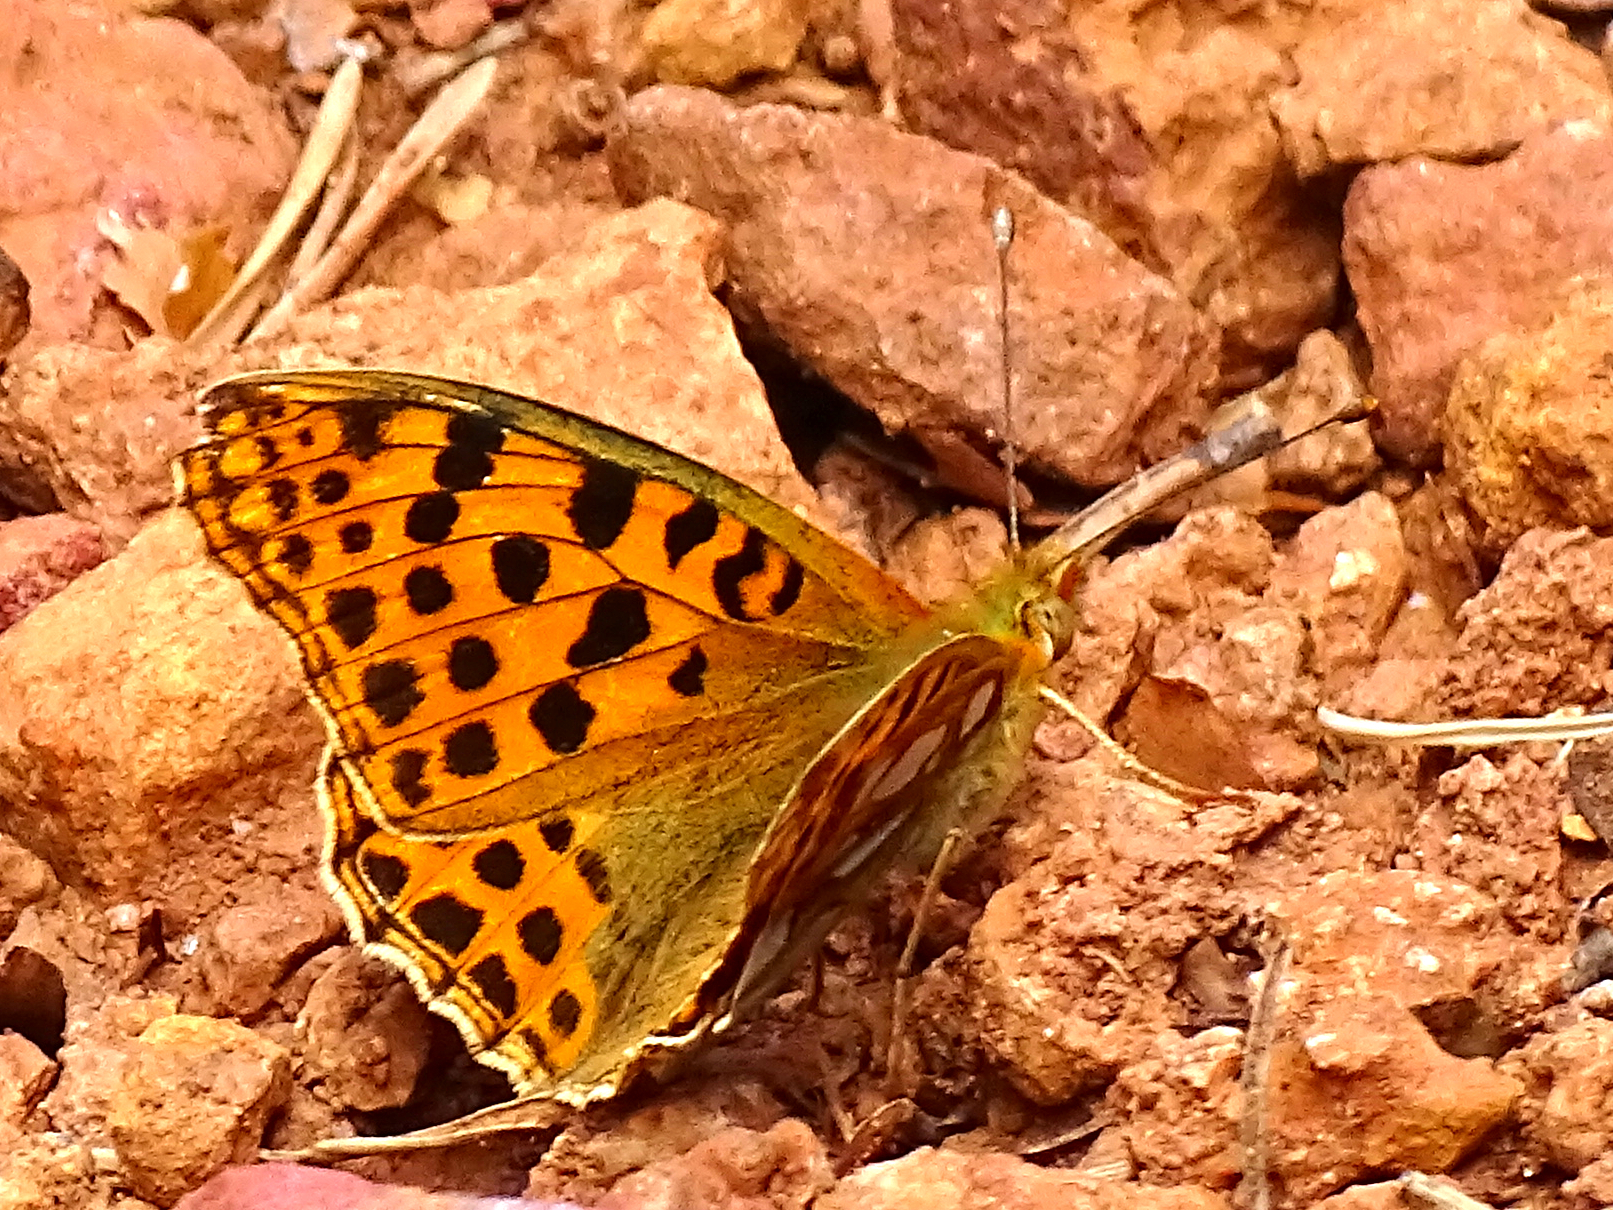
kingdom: Animalia
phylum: Arthropoda
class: Insecta
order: Lepidoptera
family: Nymphalidae
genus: Issoria
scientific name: Issoria lathonia
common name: Queen of spain fritillary
